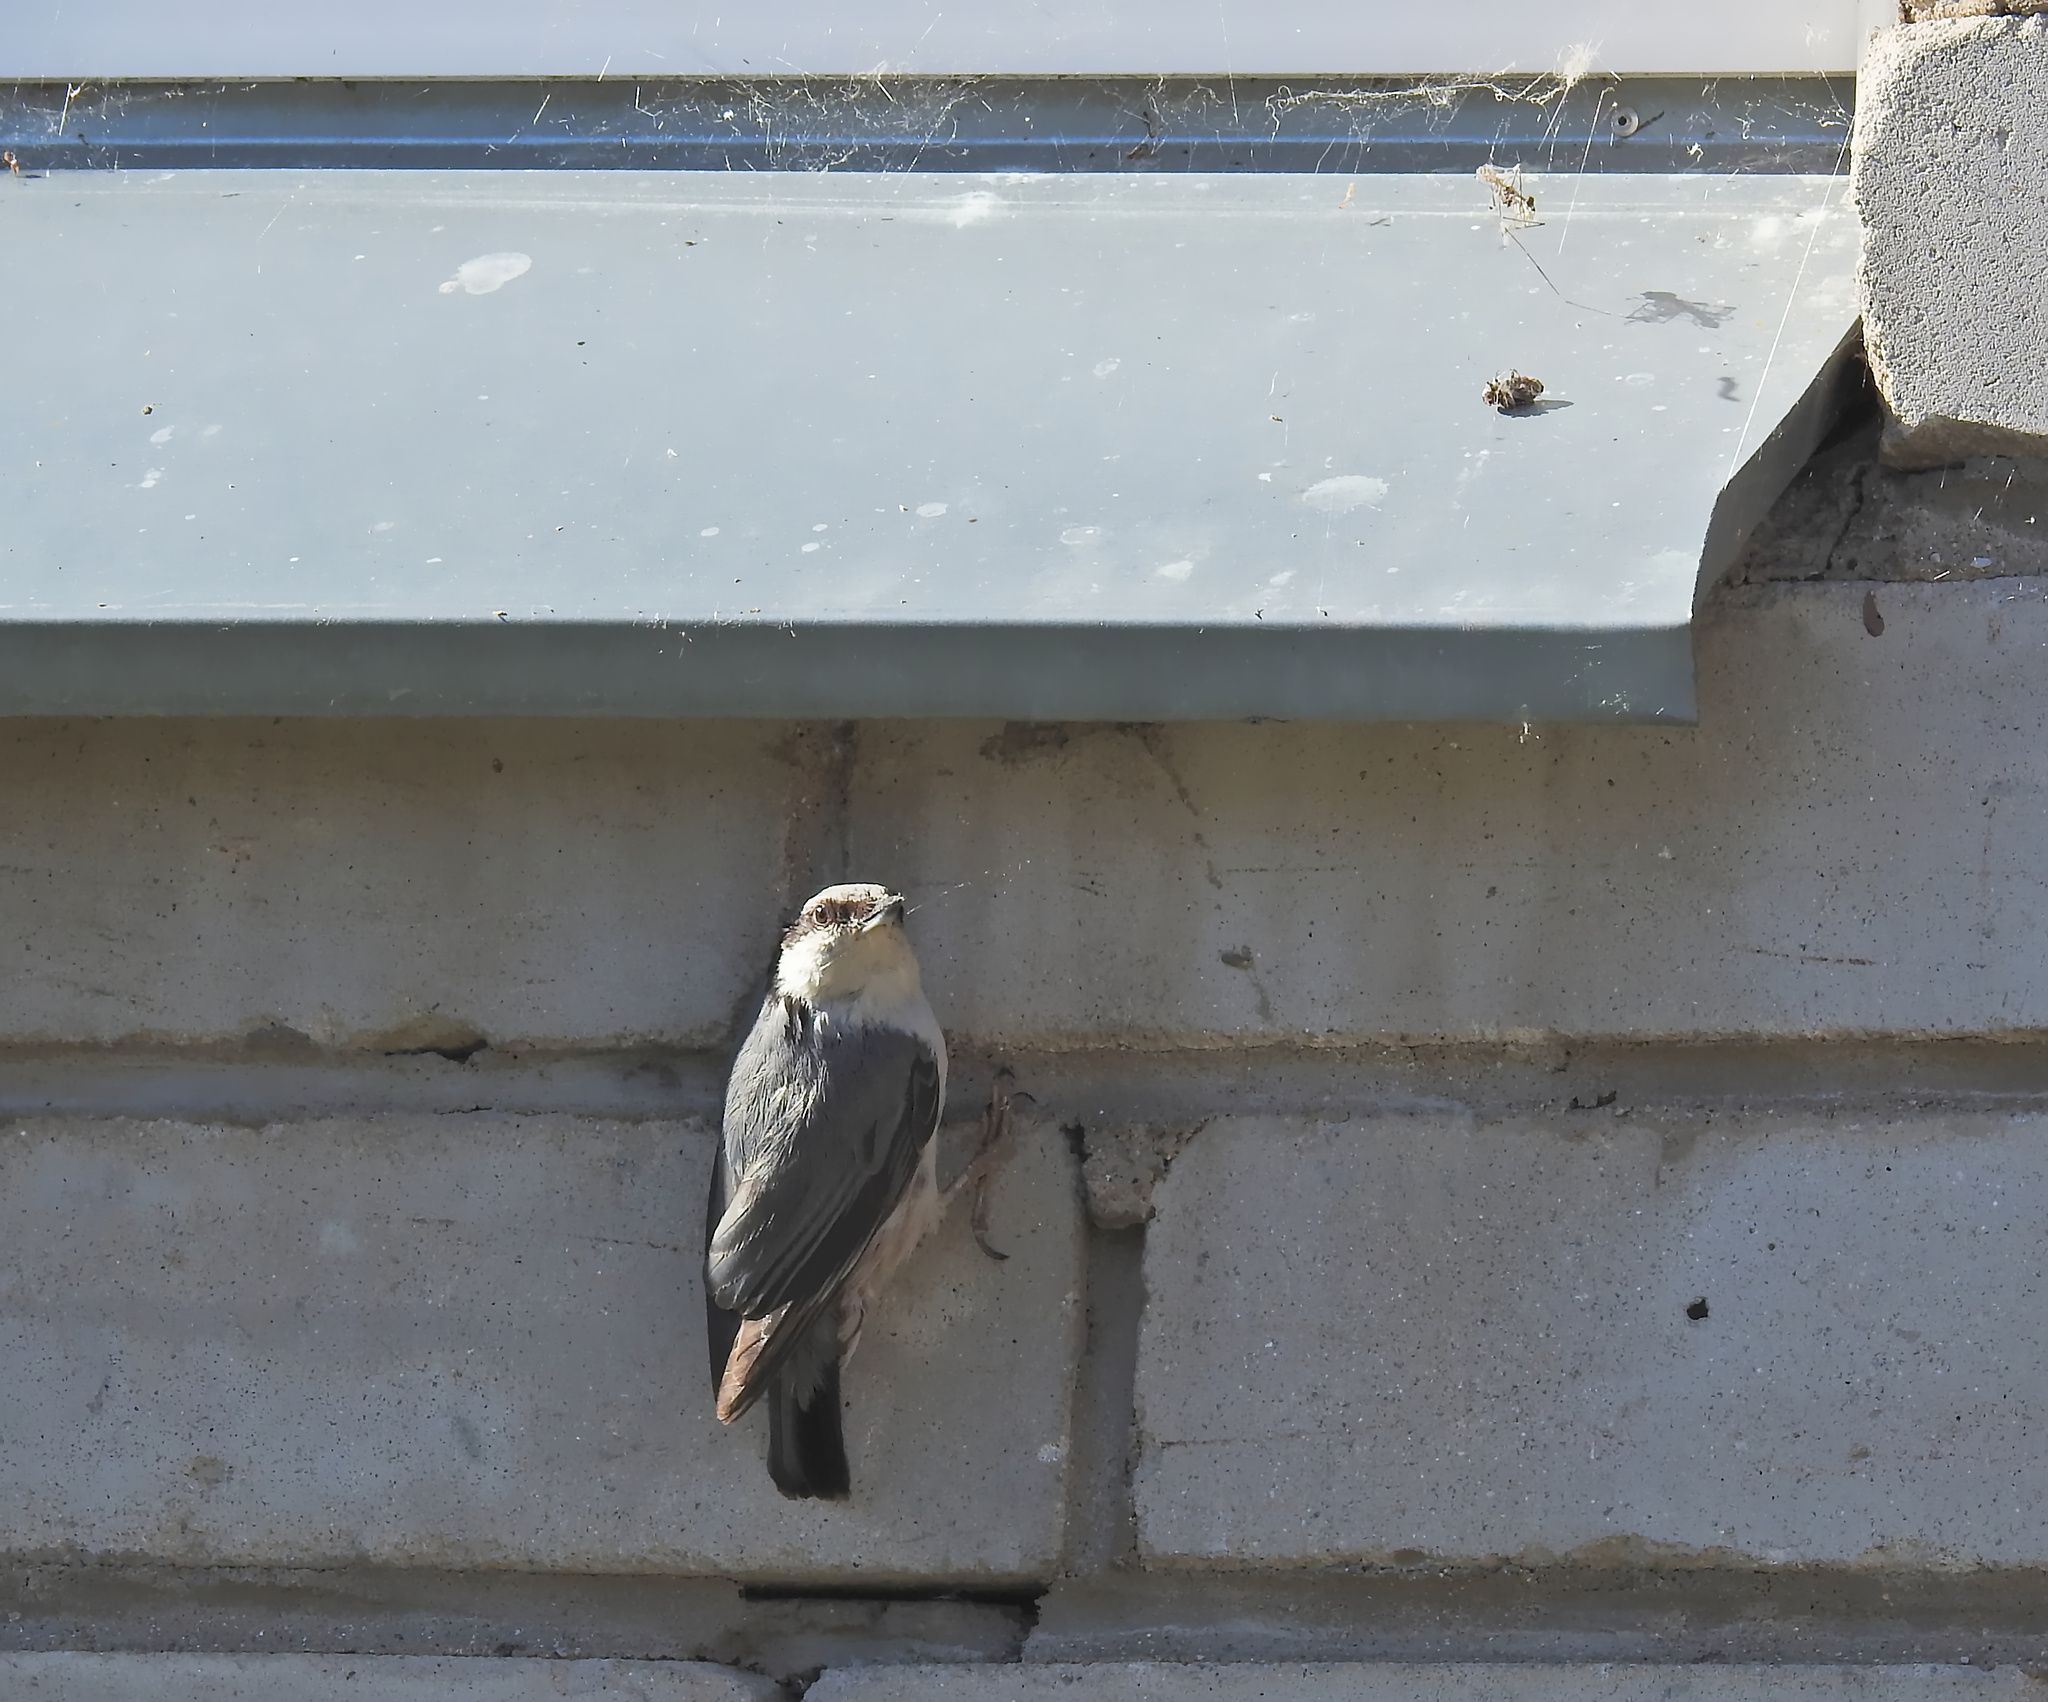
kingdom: Animalia
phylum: Chordata
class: Aves
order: Passeriformes
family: Sittidae
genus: Sitta
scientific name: Sitta europaea
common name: Eurasian nuthatch
